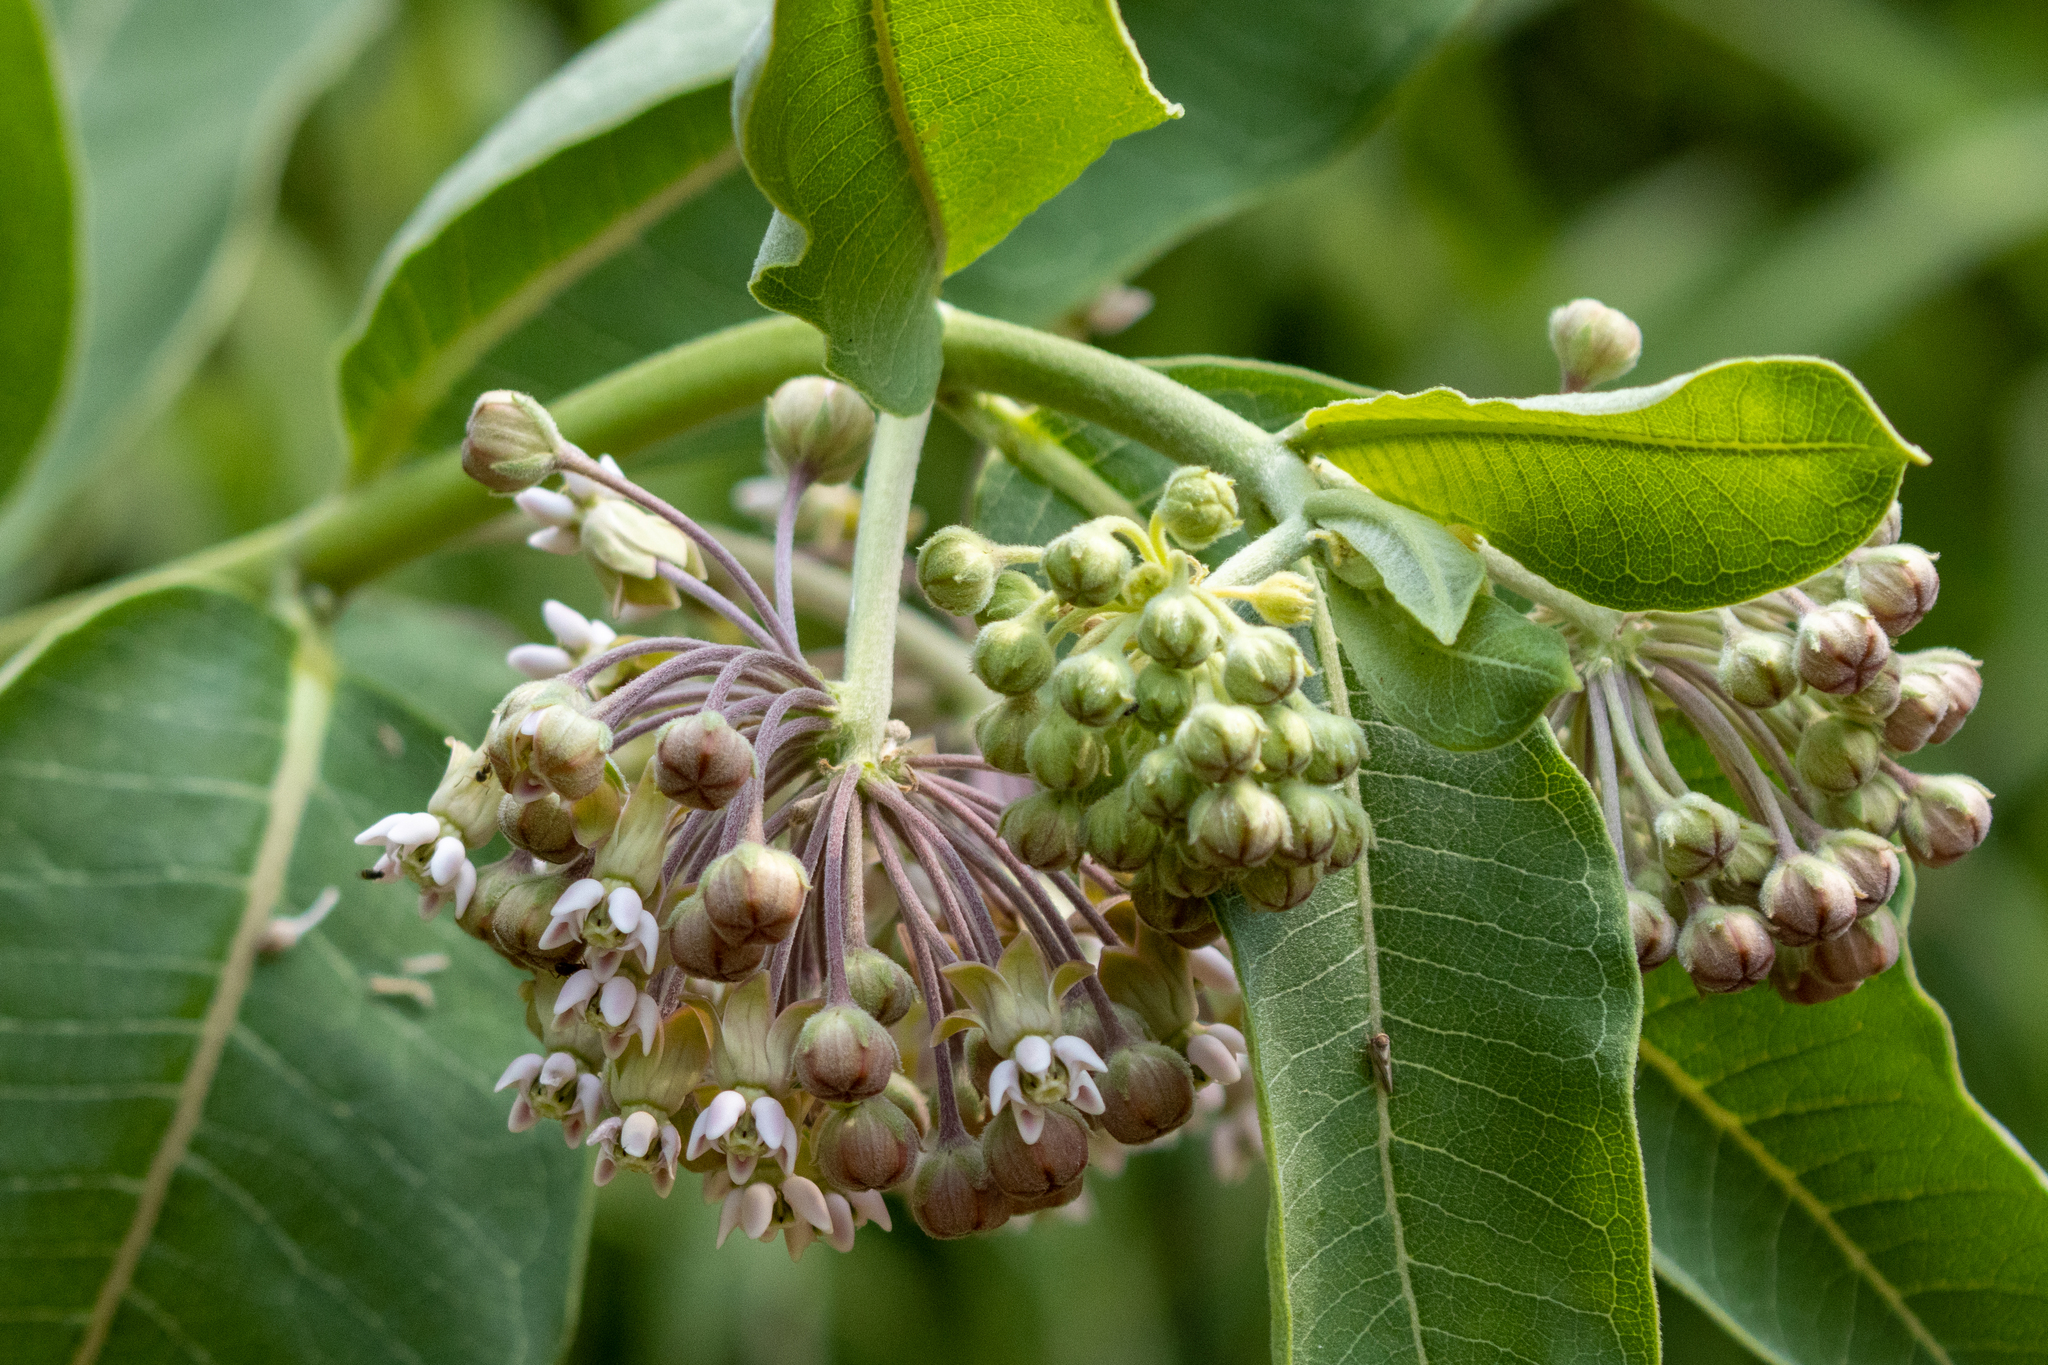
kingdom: Plantae
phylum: Tracheophyta
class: Magnoliopsida
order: Gentianales
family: Apocynaceae
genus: Asclepias
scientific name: Asclepias syriaca
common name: Common milkweed
